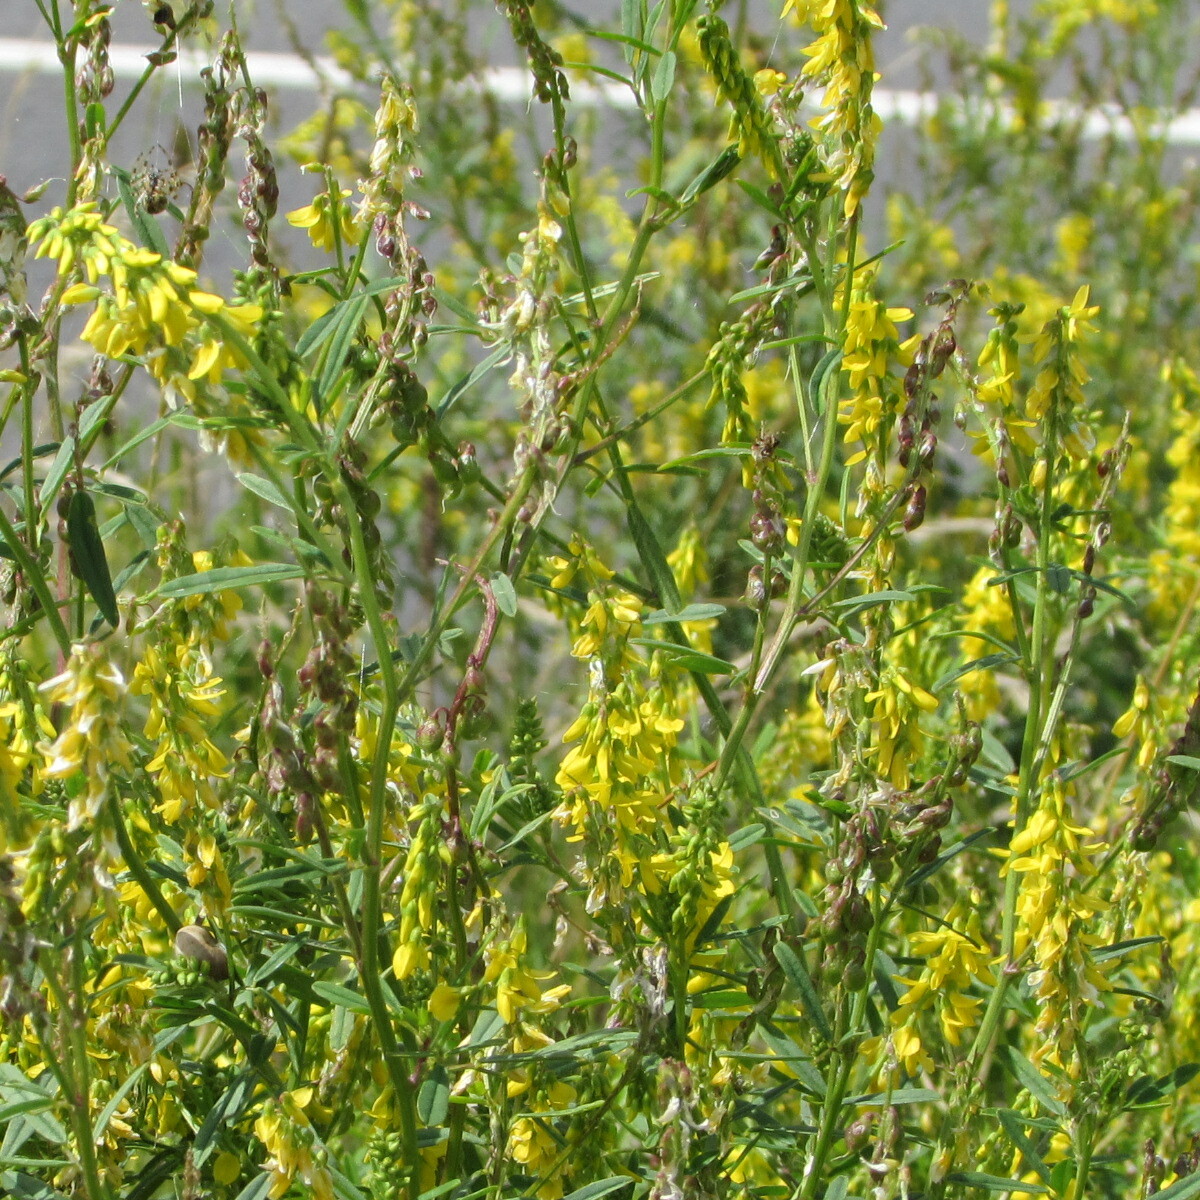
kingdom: Plantae
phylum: Tracheophyta
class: Magnoliopsida
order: Fabales
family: Fabaceae
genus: Melilotus
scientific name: Melilotus altissimus
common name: Tall melilot
